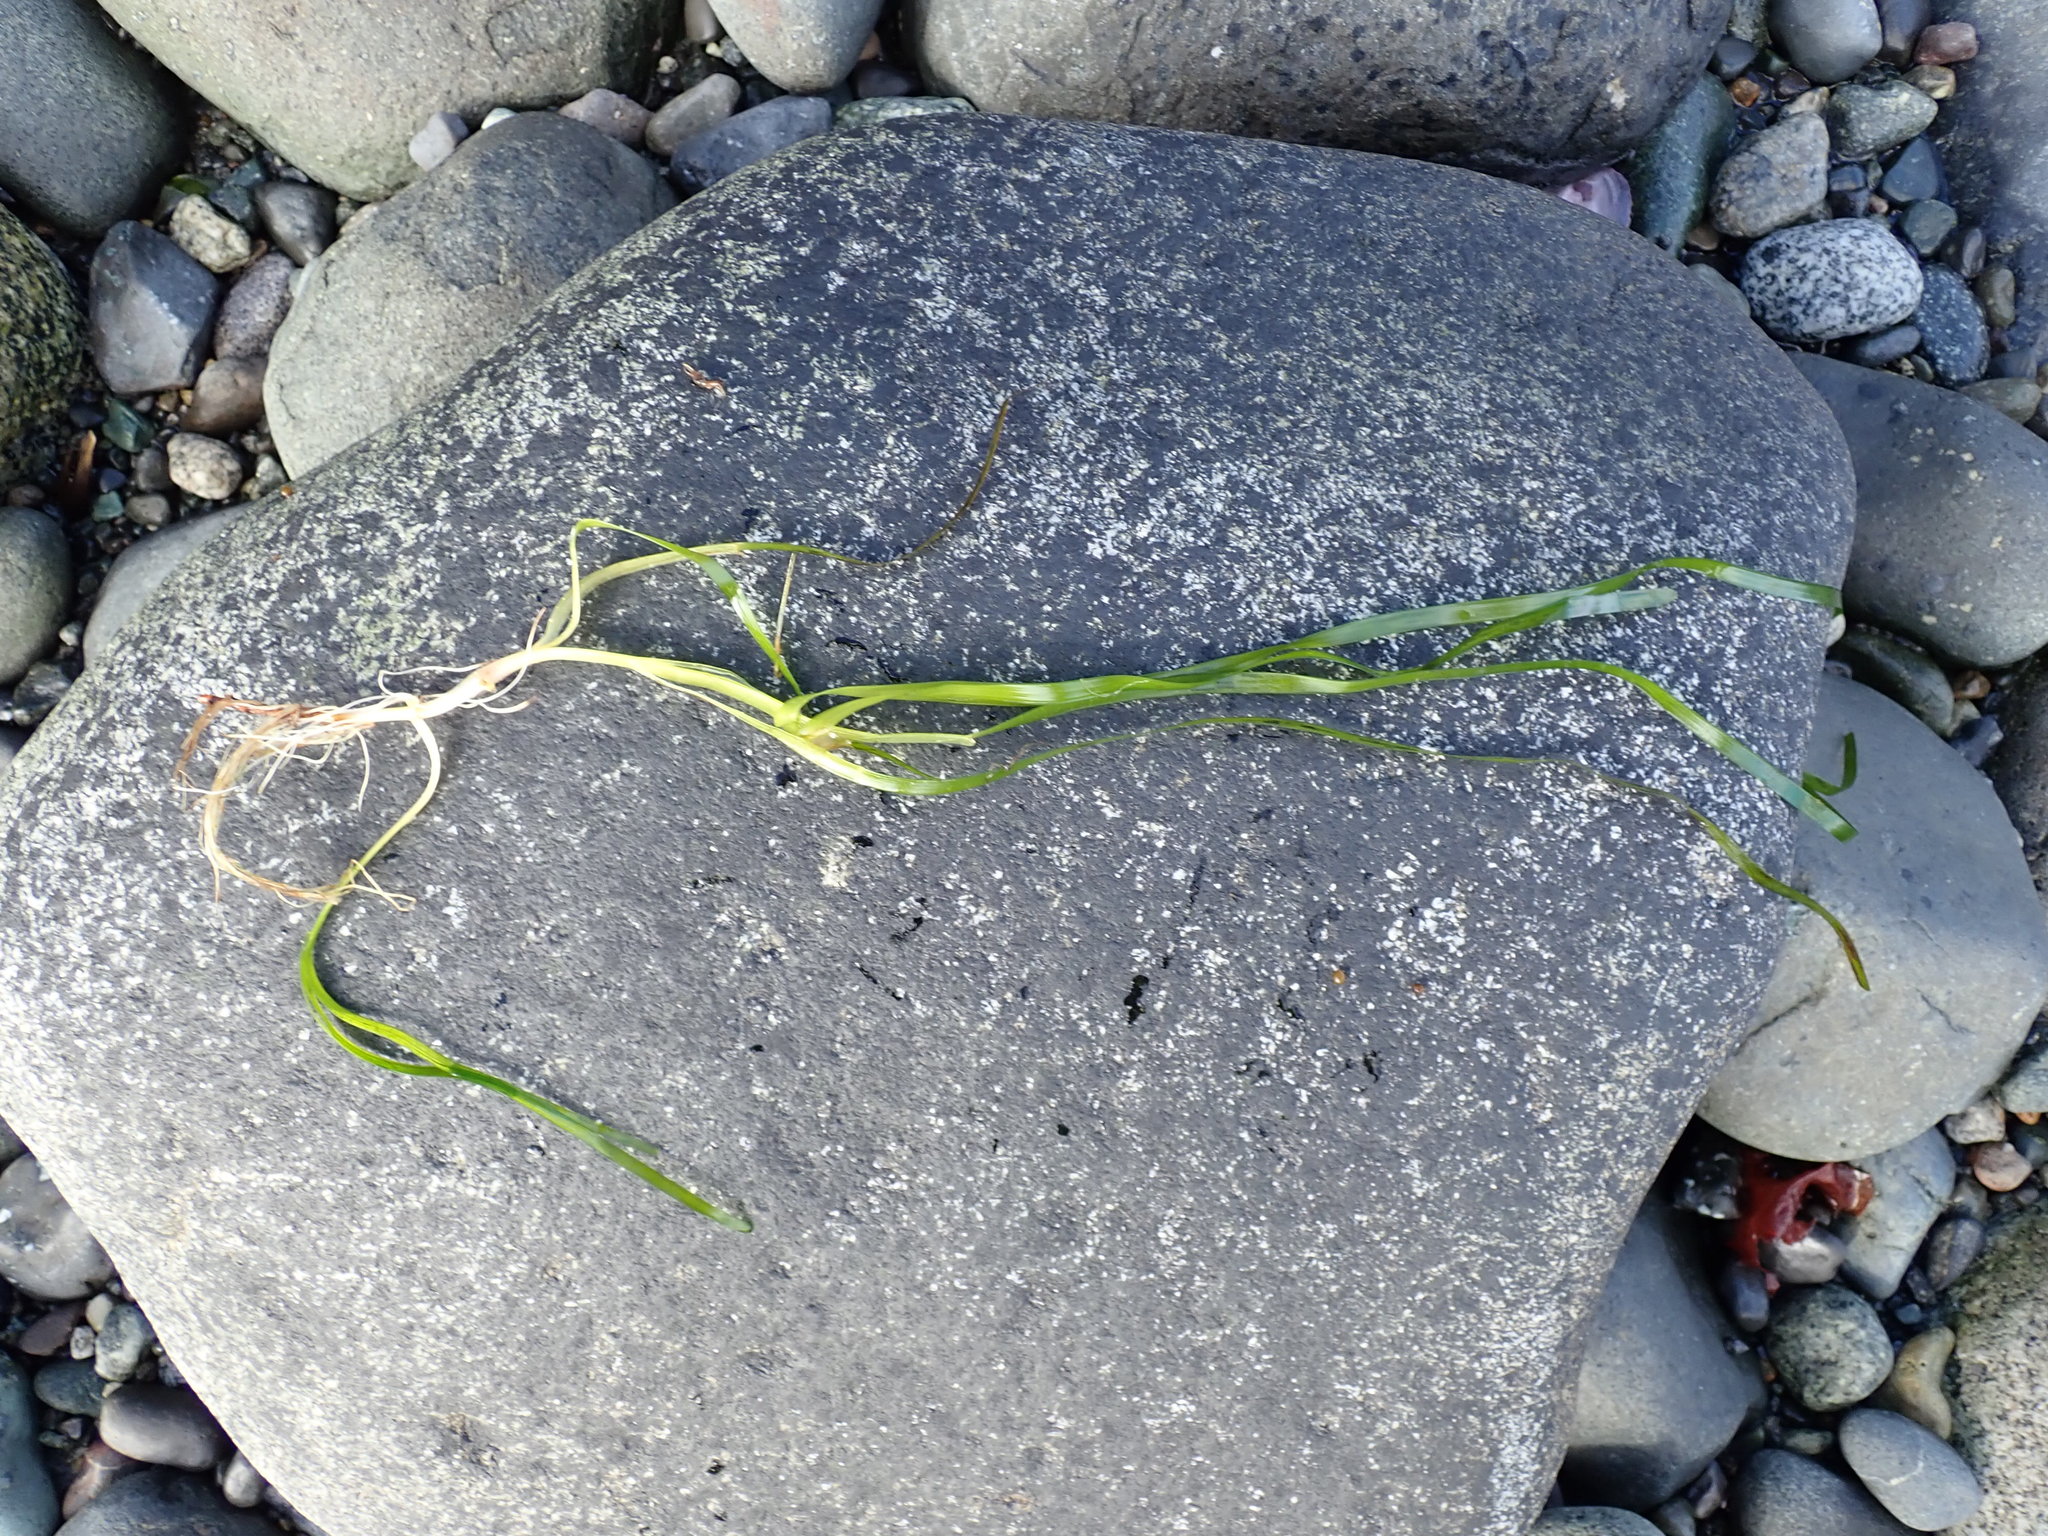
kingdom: Plantae
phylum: Tracheophyta
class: Liliopsida
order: Alismatales
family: Zosteraceae
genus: Zostera
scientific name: Zostera marina
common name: Eelgrass
